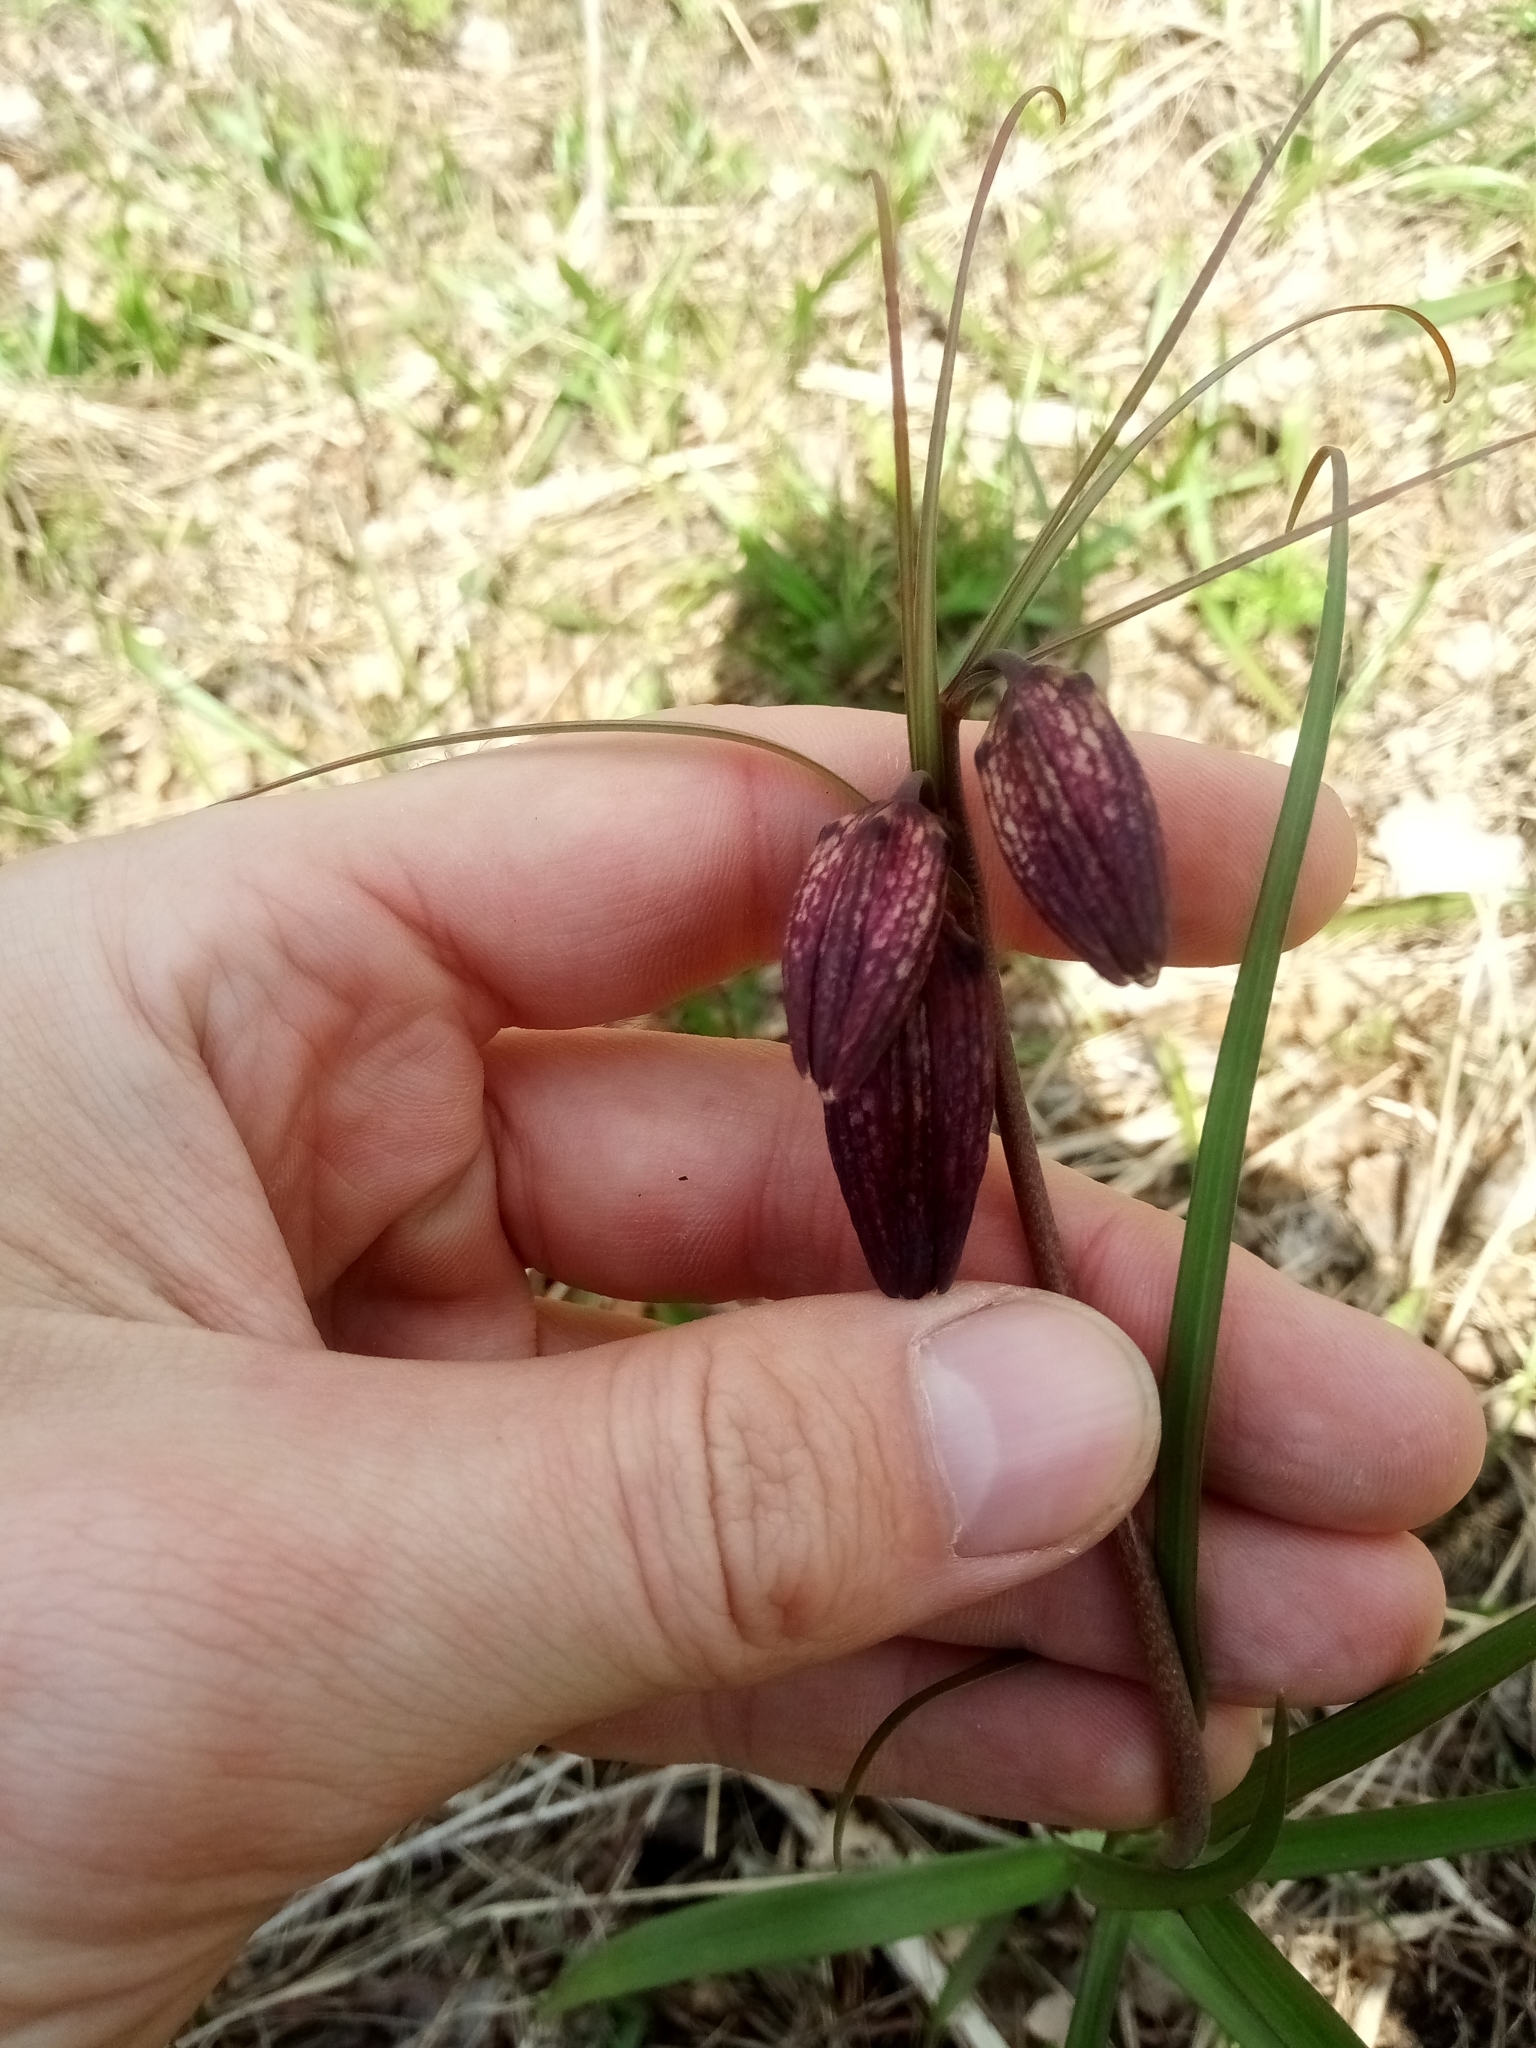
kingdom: Plantae
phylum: Tracheophyta
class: Liliopsida
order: Liliales
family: Liliaceae
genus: Fritillaria
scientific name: Fritillaria ruthenica
